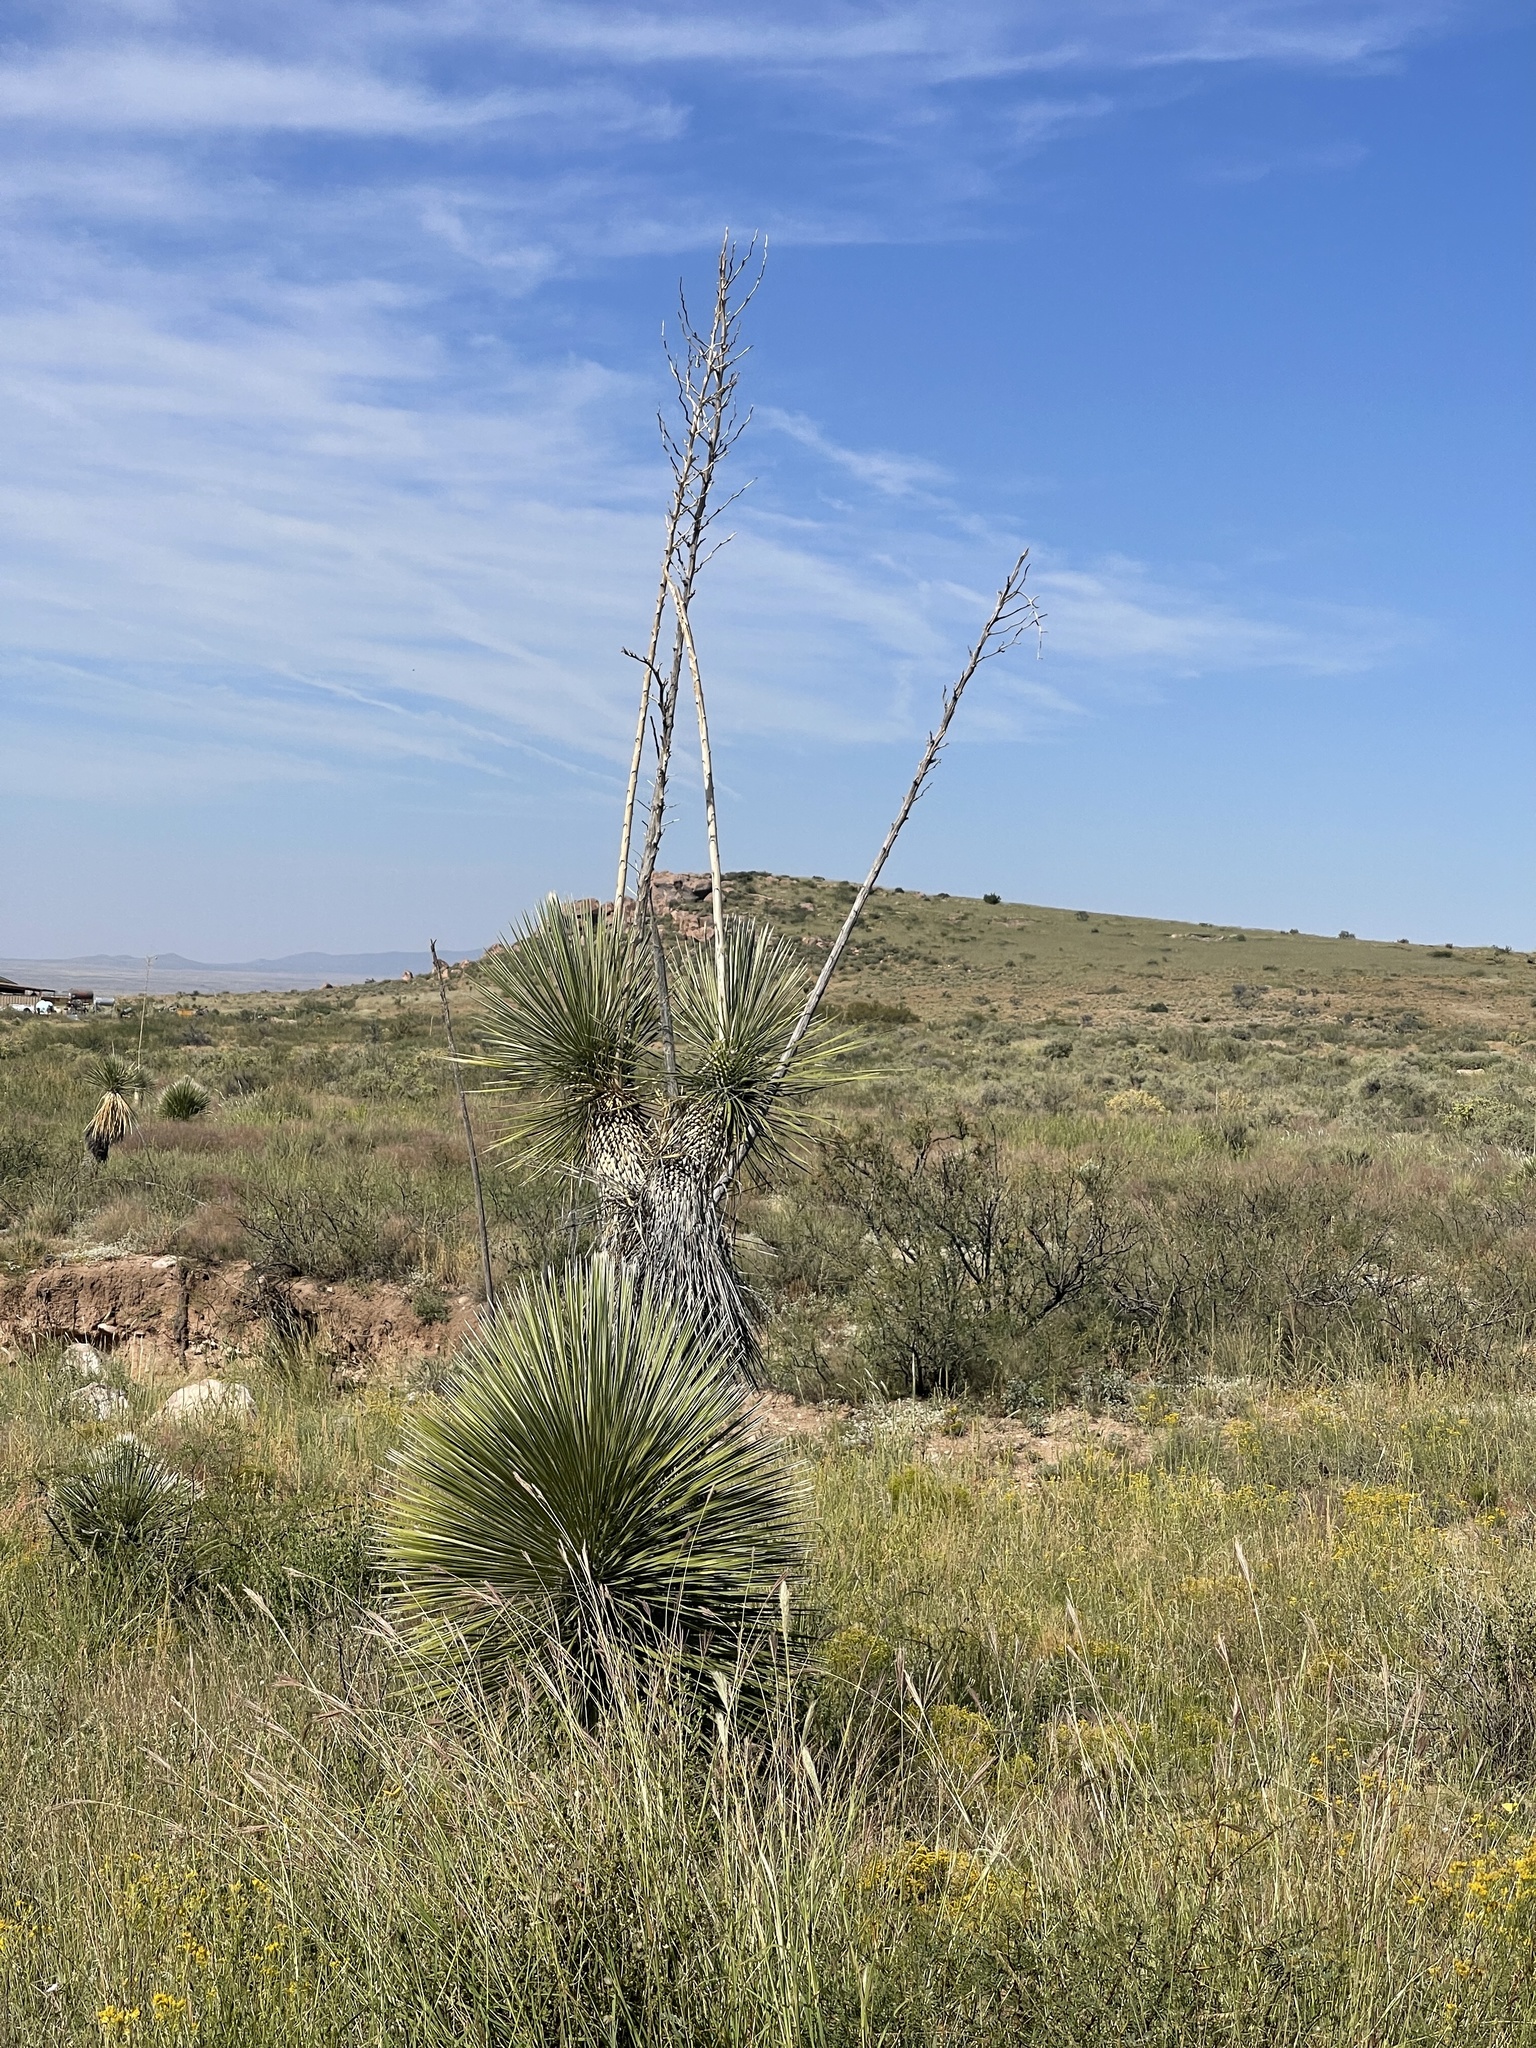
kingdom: Plantae
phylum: Tracheophyta
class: Liliopsida
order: Asparagales
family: Asparagaceae
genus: Yucca
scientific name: Yucca elata
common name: Palmella
